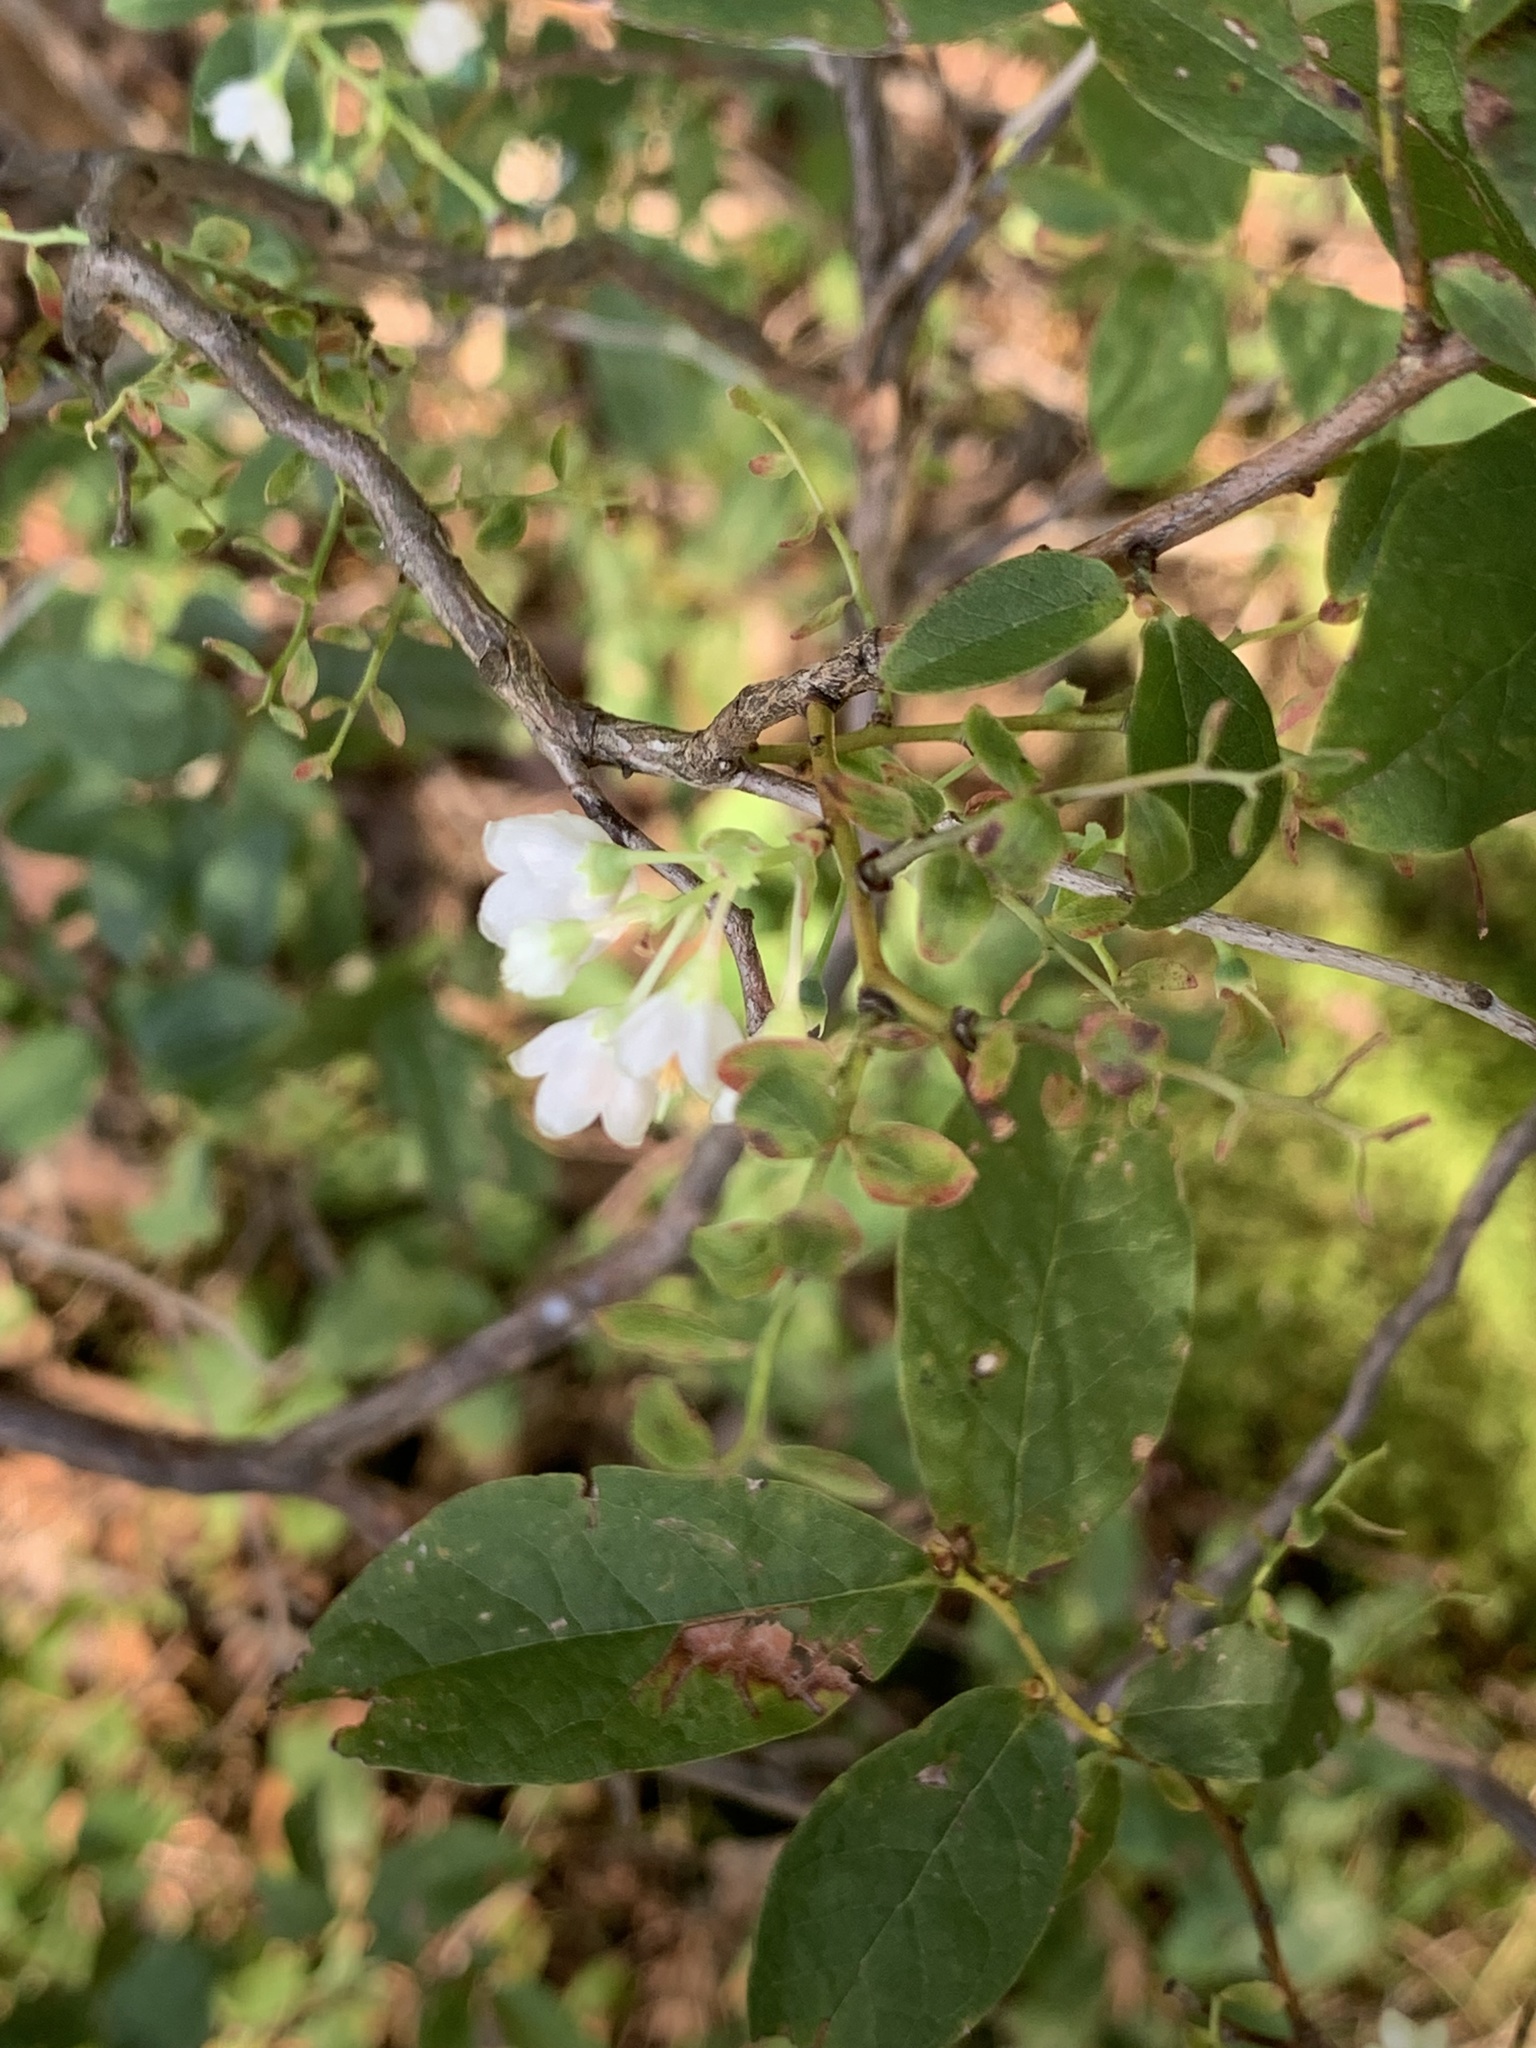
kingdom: Plantae
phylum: Tracheophyta
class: Magnoliopsida
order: Ericales
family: Ericaceae
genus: Vaccinium
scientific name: Vaccinium stamineum
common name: Deerberry
